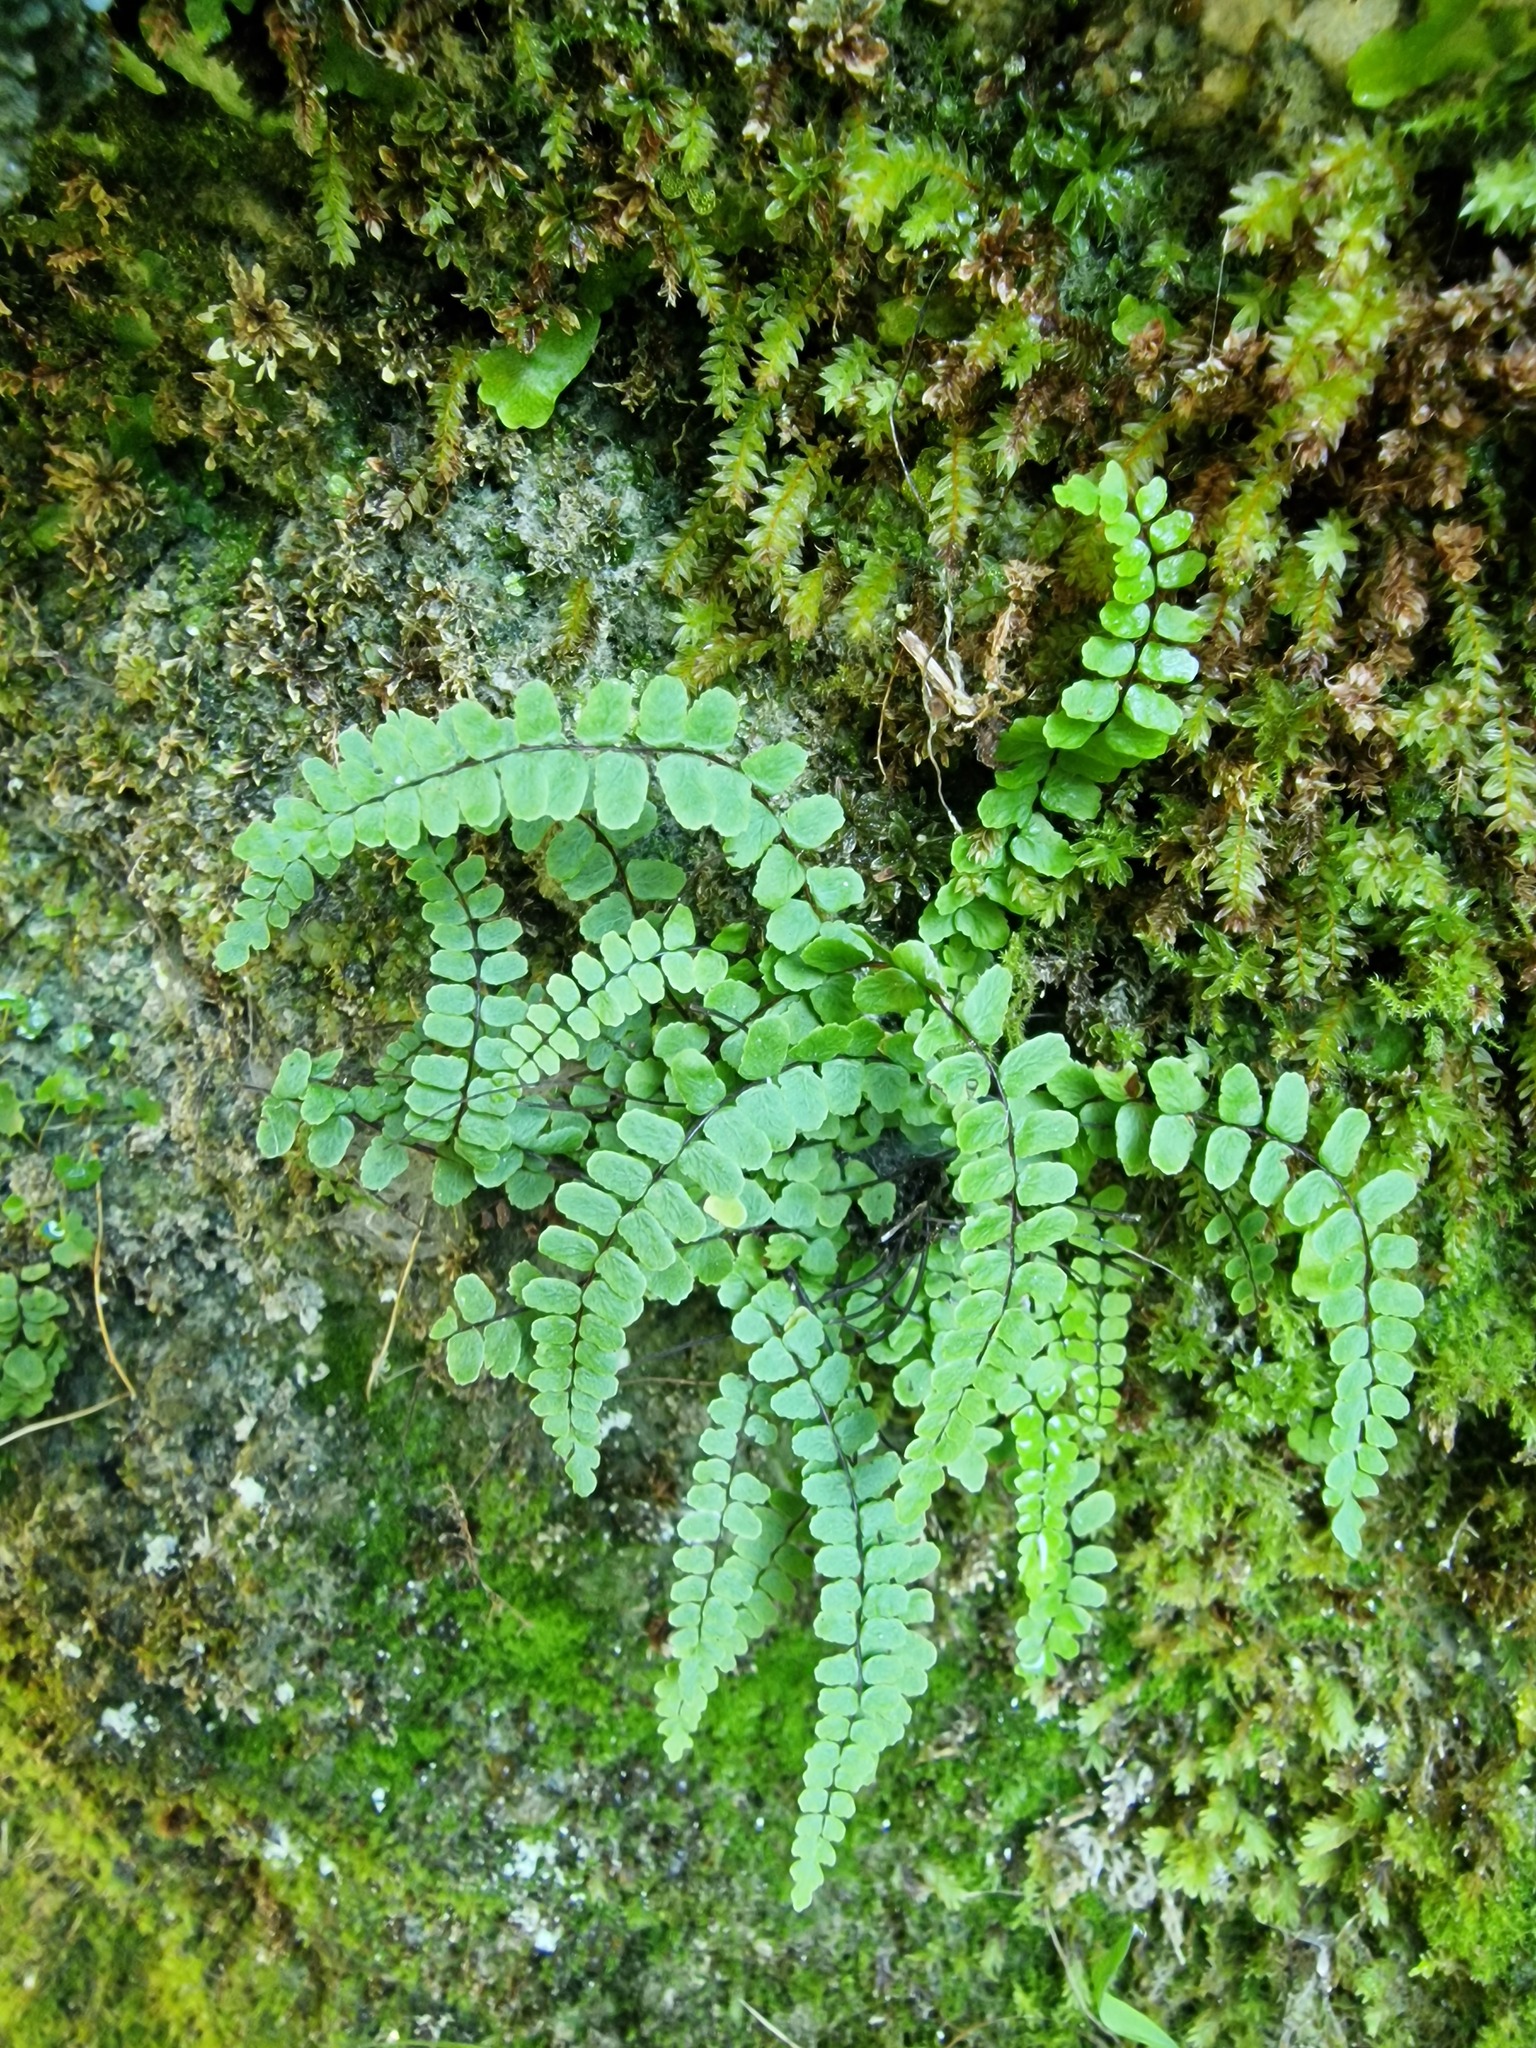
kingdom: Plantae
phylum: Tracheophyta
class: Polypodiopsida
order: Polypodiales
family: Aspleniaceae
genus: Asplenium
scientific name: Asplenium trichomanes
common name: Maidenhair spleenwort
